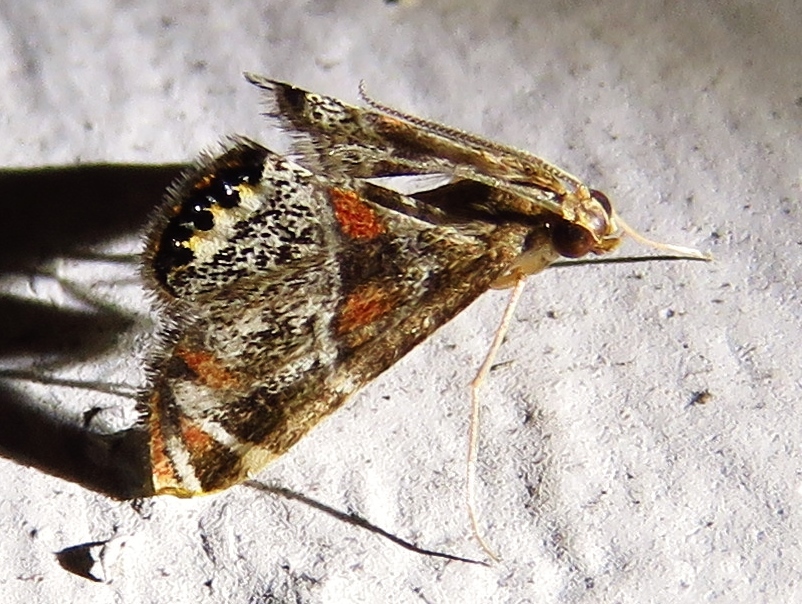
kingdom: Animalia
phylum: Arthropoda
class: Insecta
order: Lepidoptera
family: Crambidae
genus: Petrophila
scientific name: Petrophila jaliscalis
